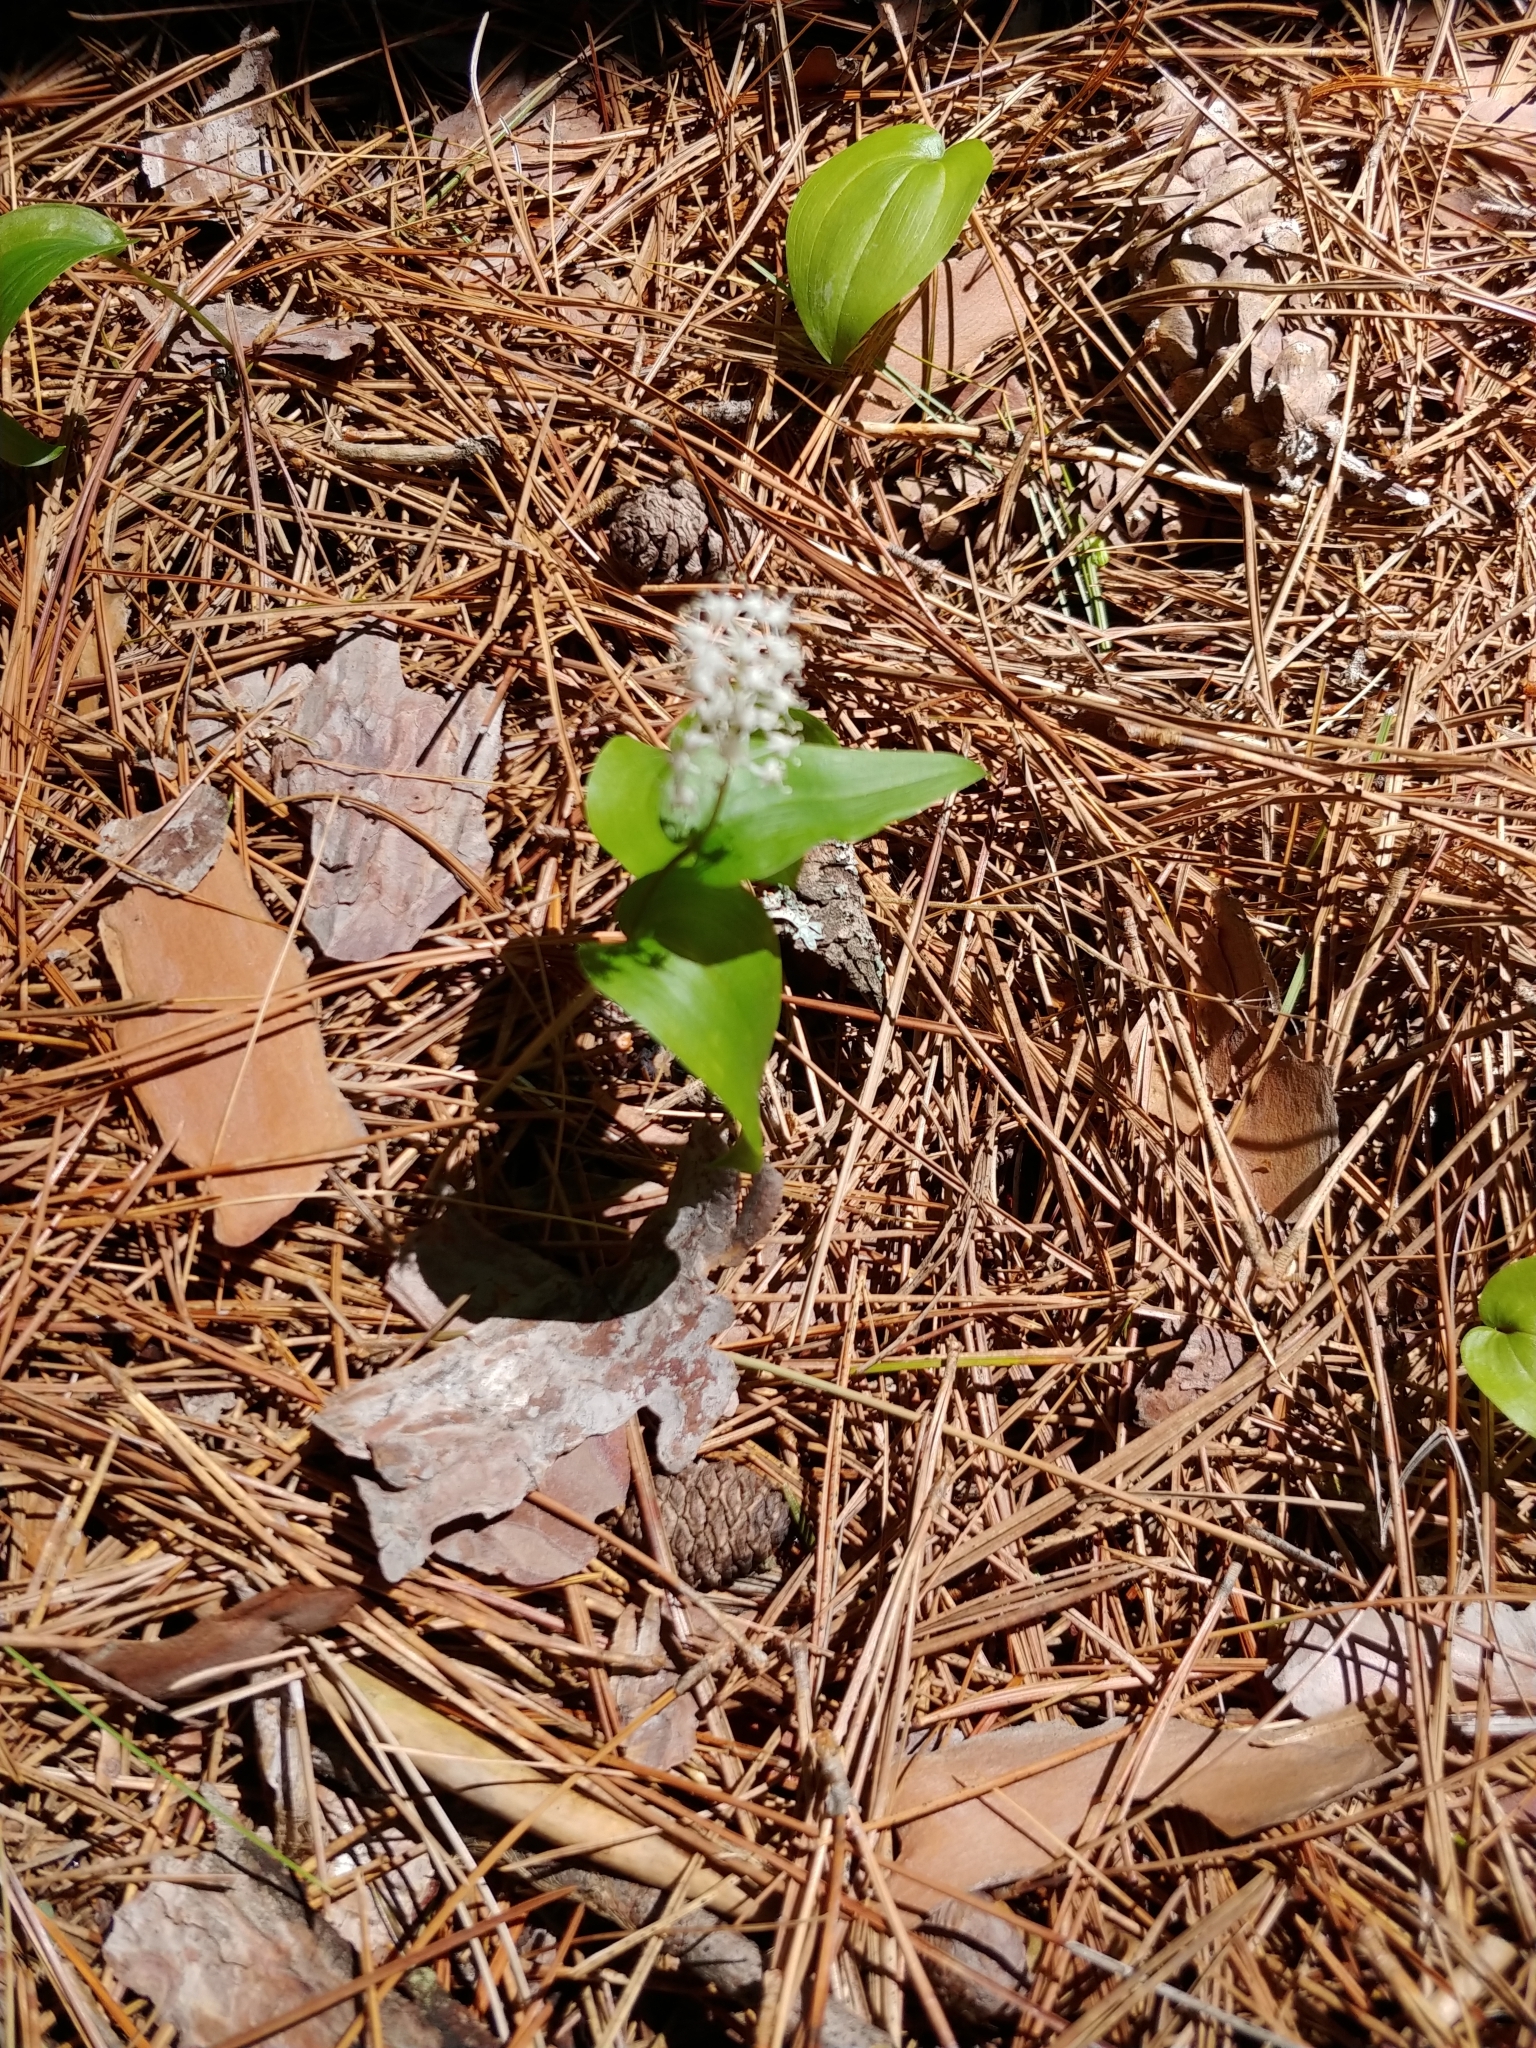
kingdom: Plantae
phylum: Tracheophyta
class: Liliopsida
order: Asparagales
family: Asparagaceae
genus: Maianthemum
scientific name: Maianthemum canadense
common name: False lily-of-the-valley
